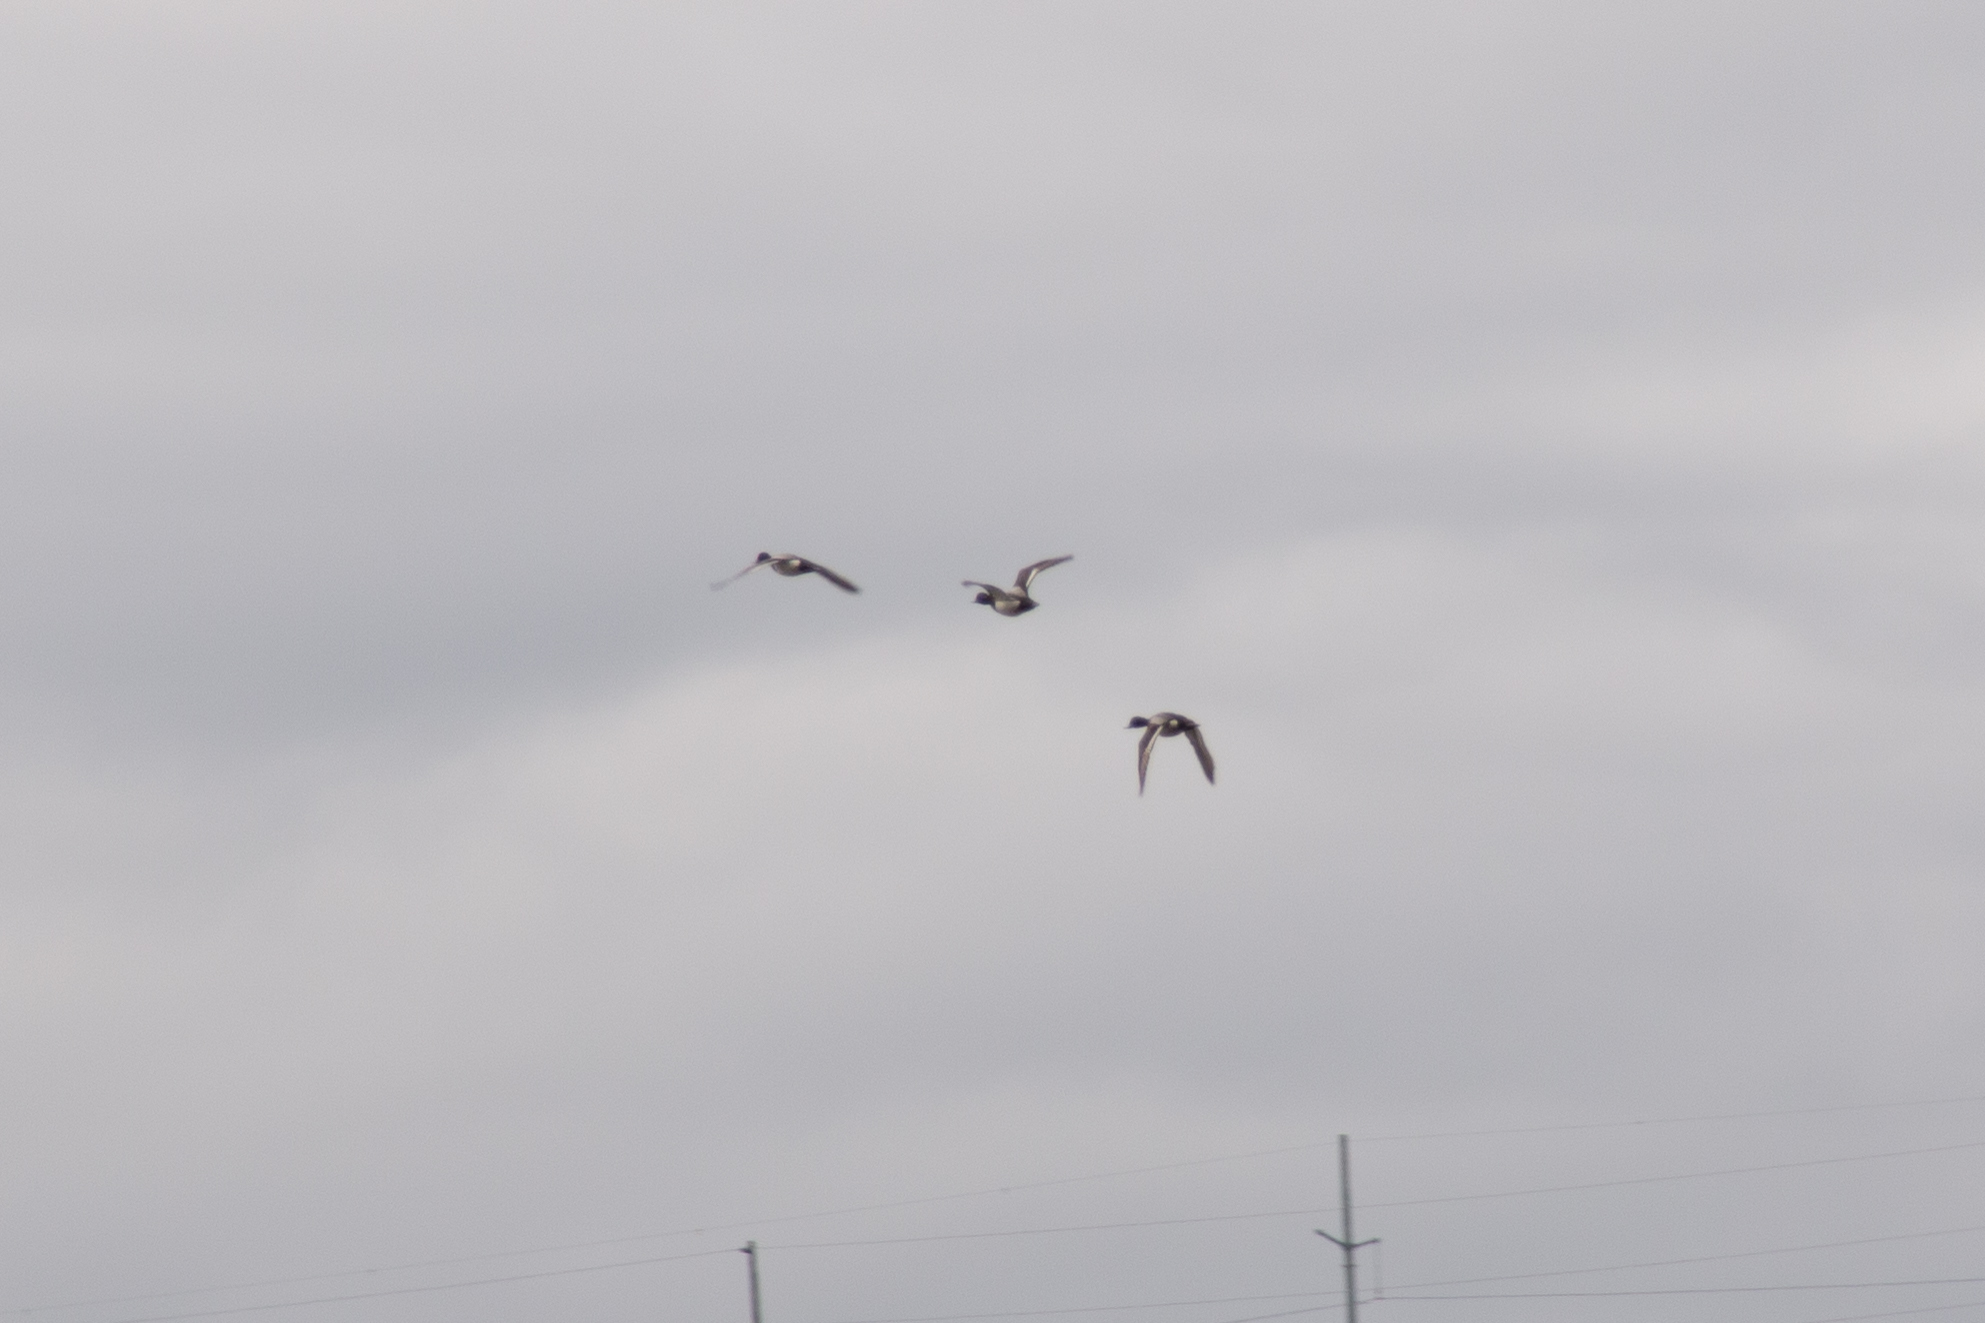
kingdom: Animalia
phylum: Chordata
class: Aves
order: Anseriformes
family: Anatidae
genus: Aythya
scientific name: Aythya affinis
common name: Lesser scaup
